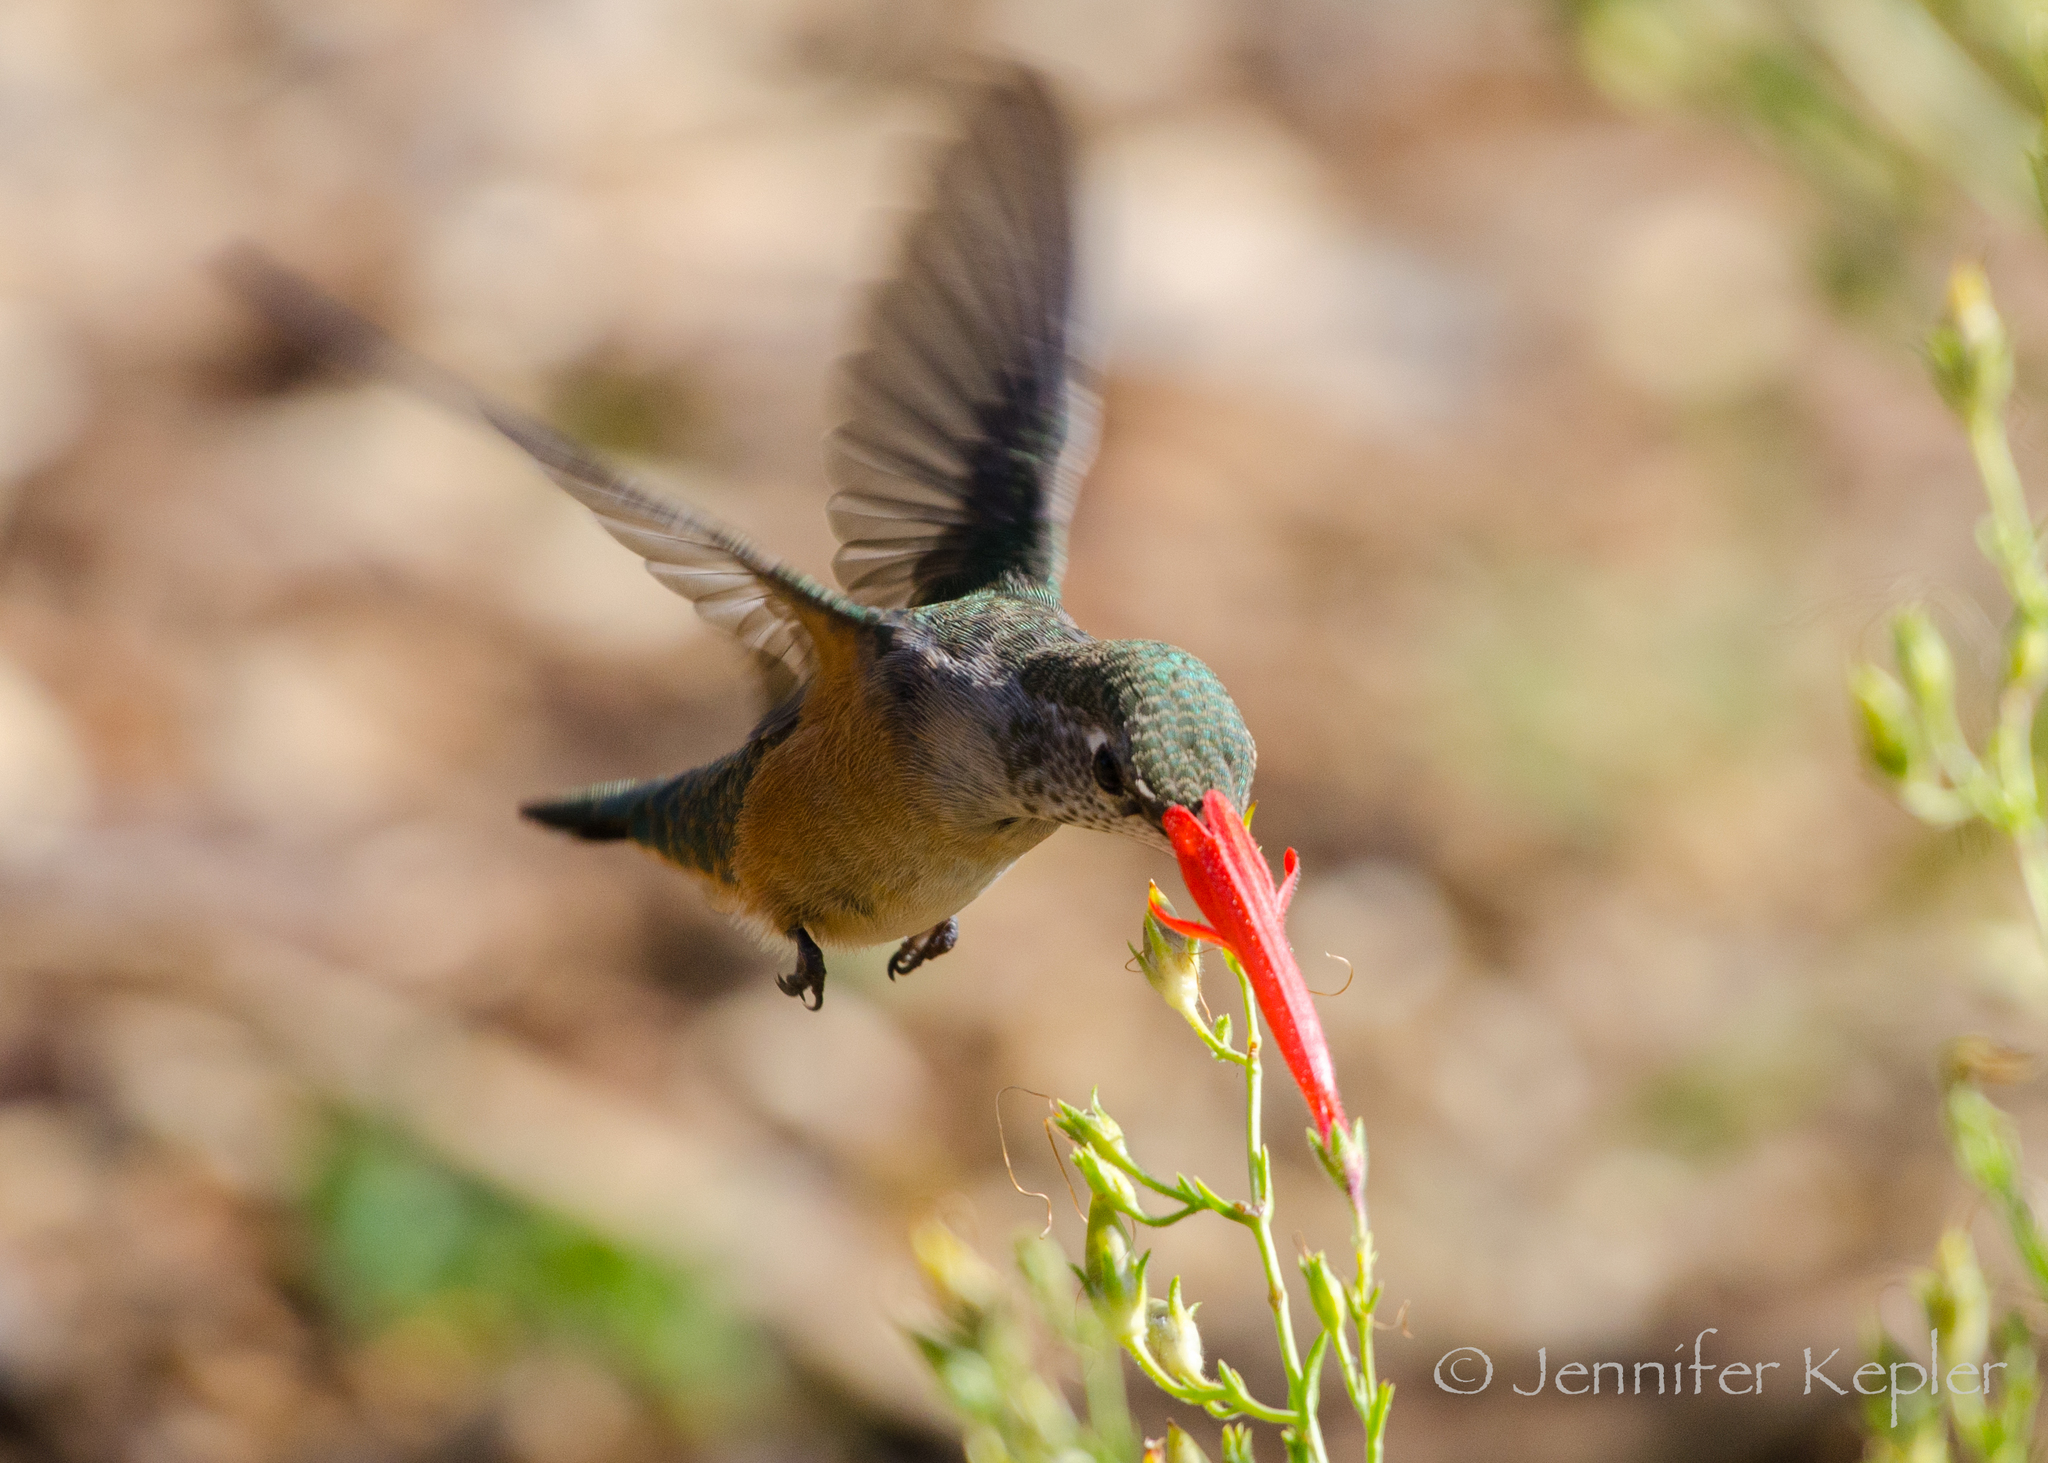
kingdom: Animalia
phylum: Chordata
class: Aves
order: Apodiformes
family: Trochilidae
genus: Selasphorus
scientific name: Selasphorus rufus
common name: Rufous hummingbird
